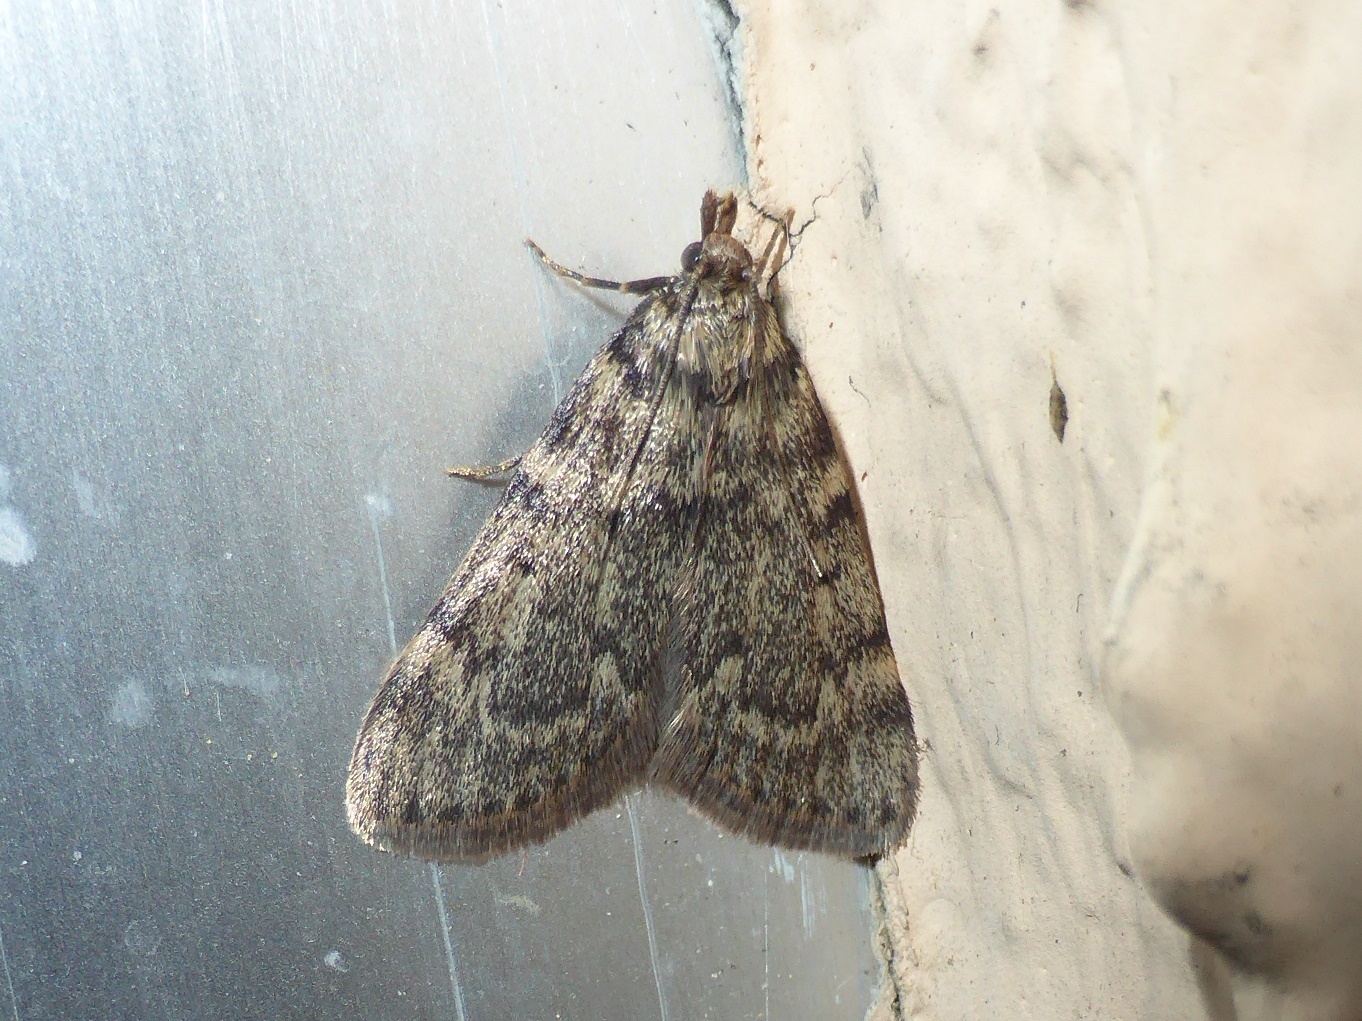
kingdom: Animalia
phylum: Arthropoda
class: Insecta
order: Lepidoptera
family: Pyralidae
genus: Aglossa
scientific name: Aglossa pinguinalis
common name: Large tabby
